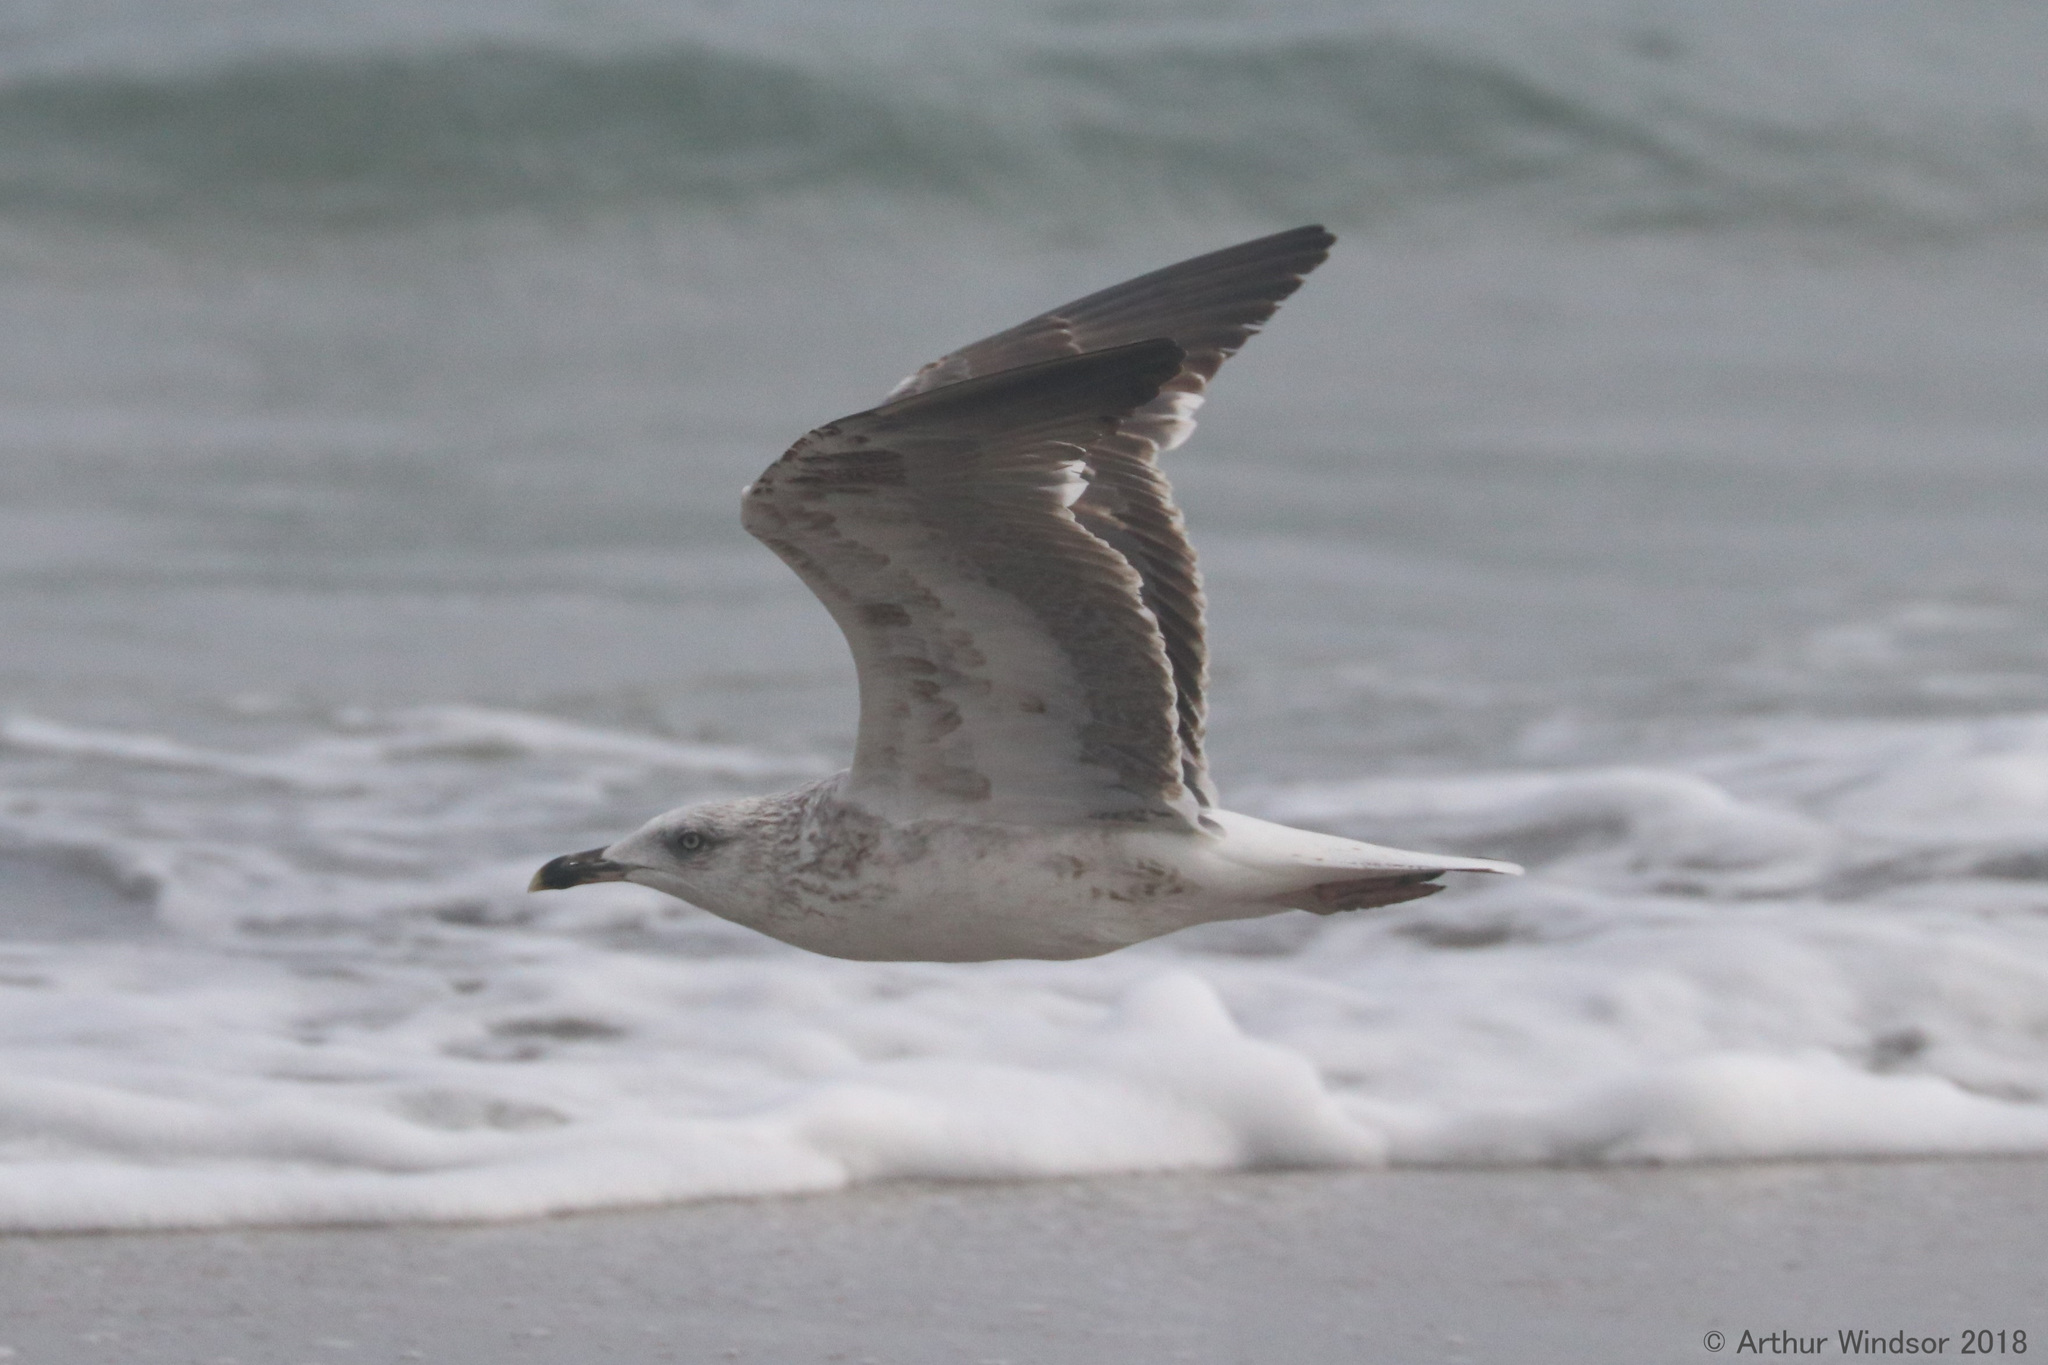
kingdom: Animalia
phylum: Chordata
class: Aves
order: Charadriiformes
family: Laridae
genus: Larus
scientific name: Larus fuscus
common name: Lesser black-backed gull
